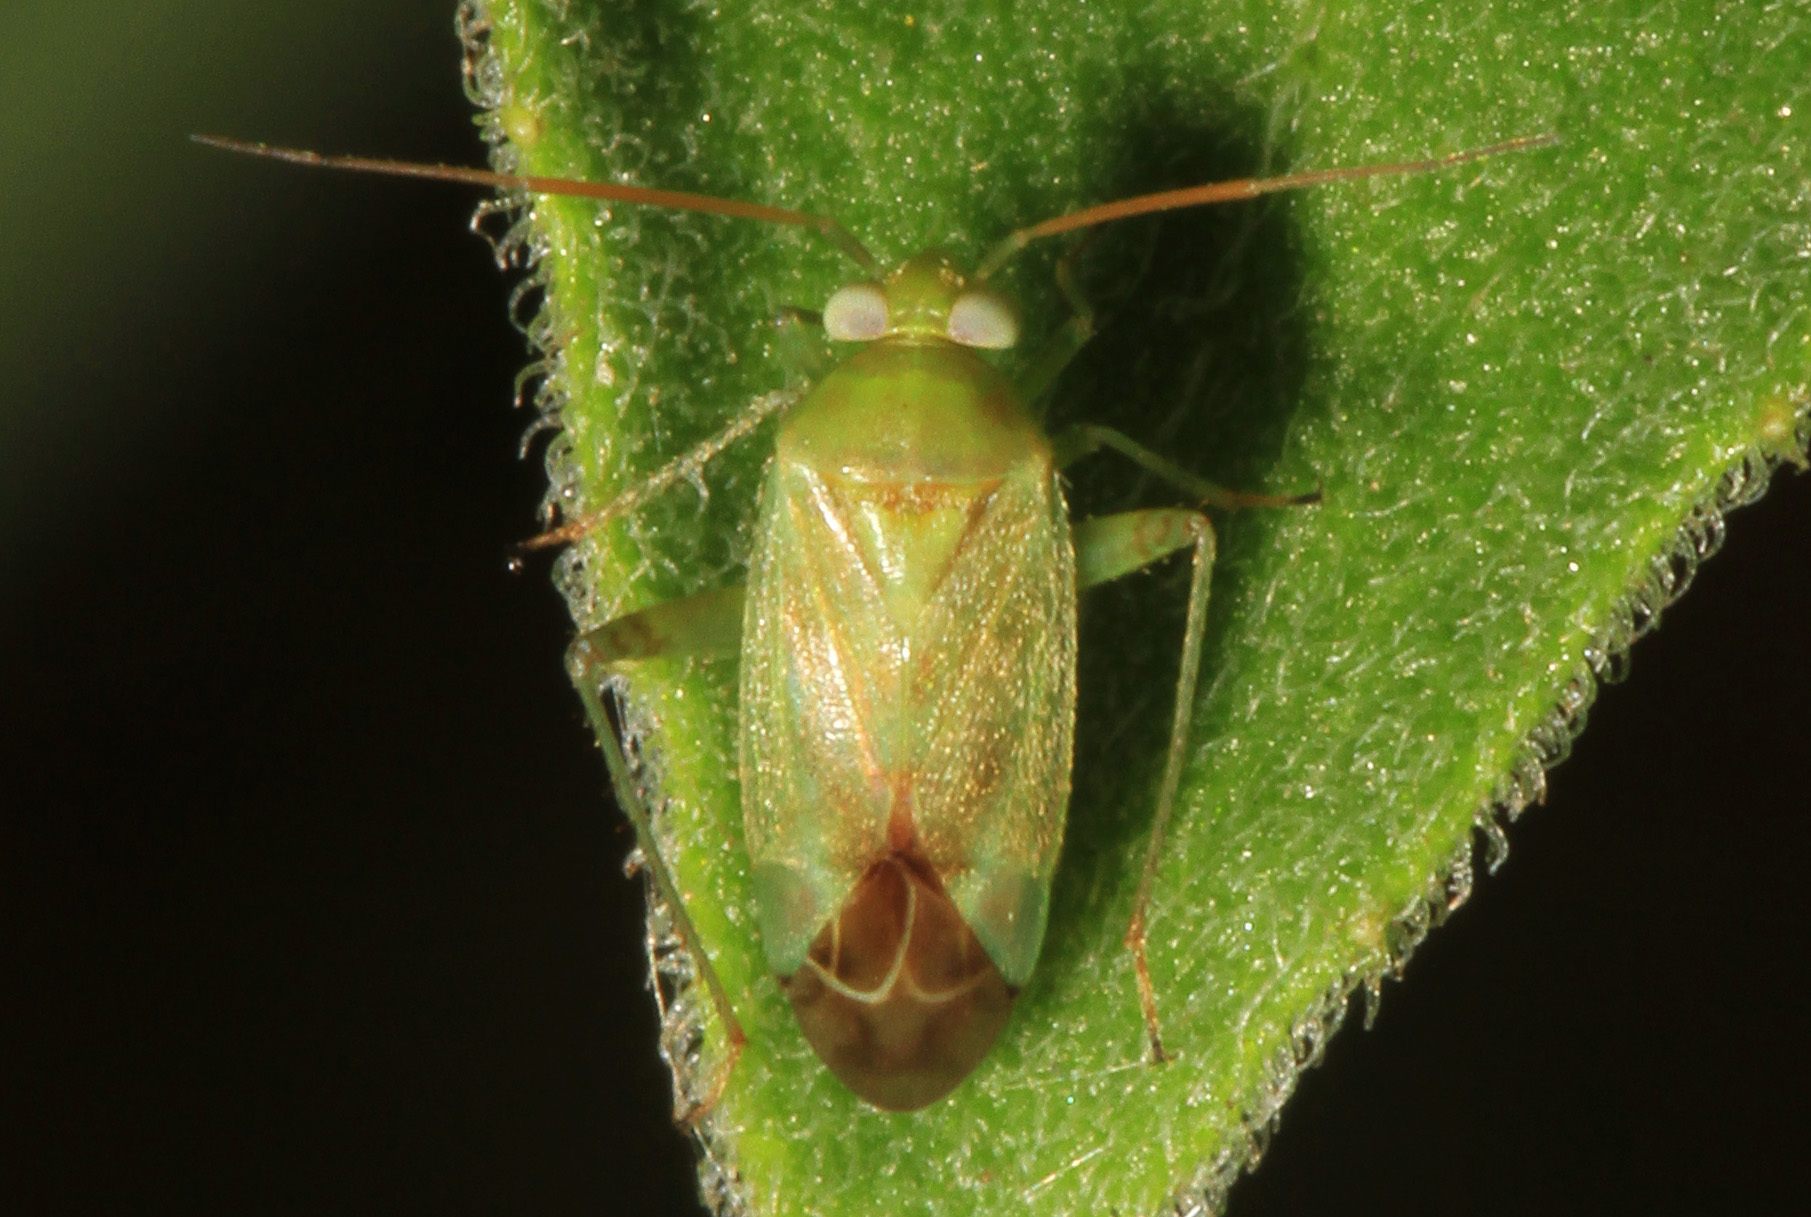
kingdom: Animalia
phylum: Arthropoda
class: Insecta
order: Hemiptera
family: Miridae
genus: Taylorilygus
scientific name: Taylorilygus apicalis
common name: Plant bug
